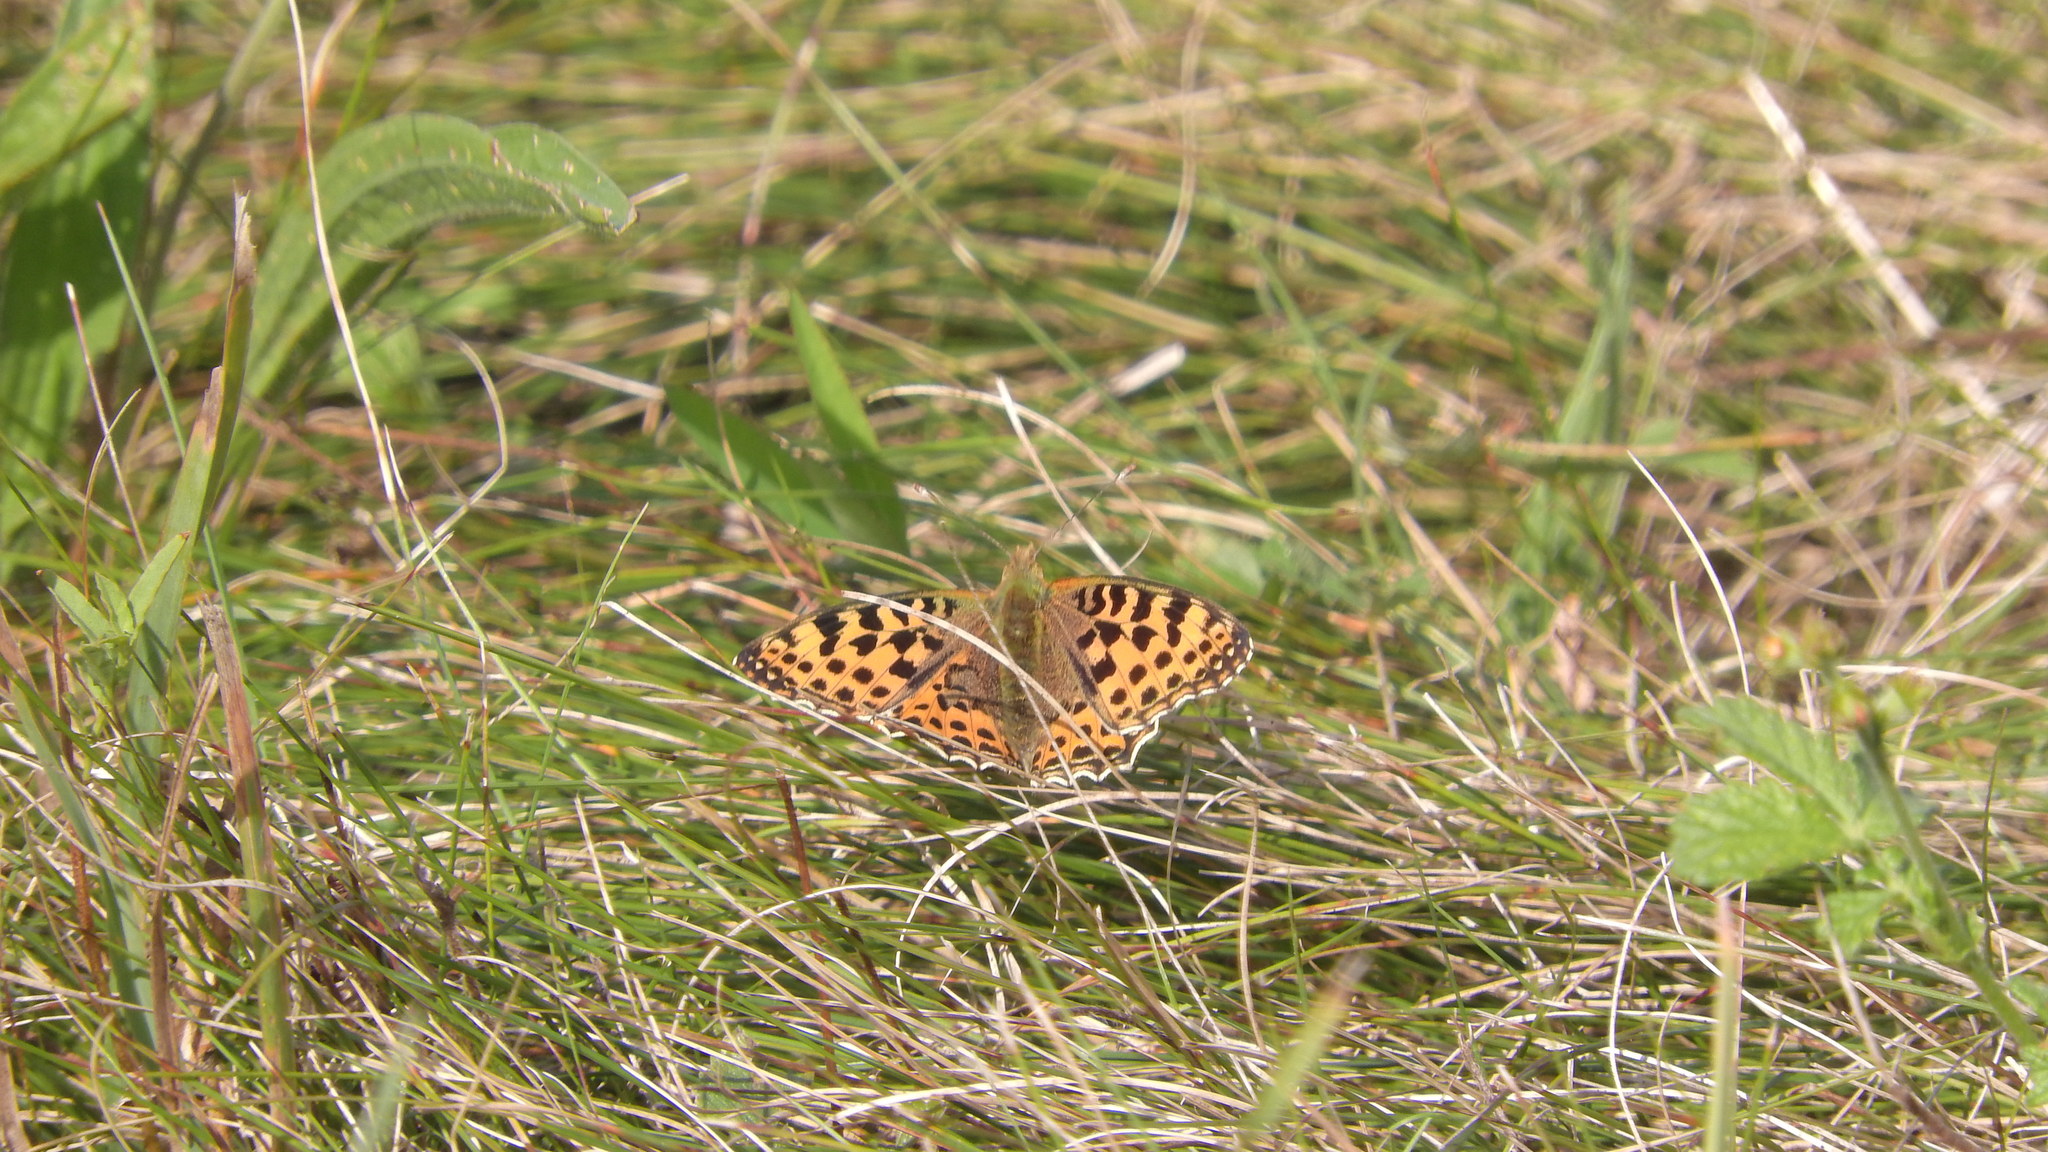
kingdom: Animalia
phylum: Arthropoda
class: Insecta
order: Lepidoptera
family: Nymphalidae
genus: Issoria
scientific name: Issoria lathonia
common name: Queen of spain fritillary
